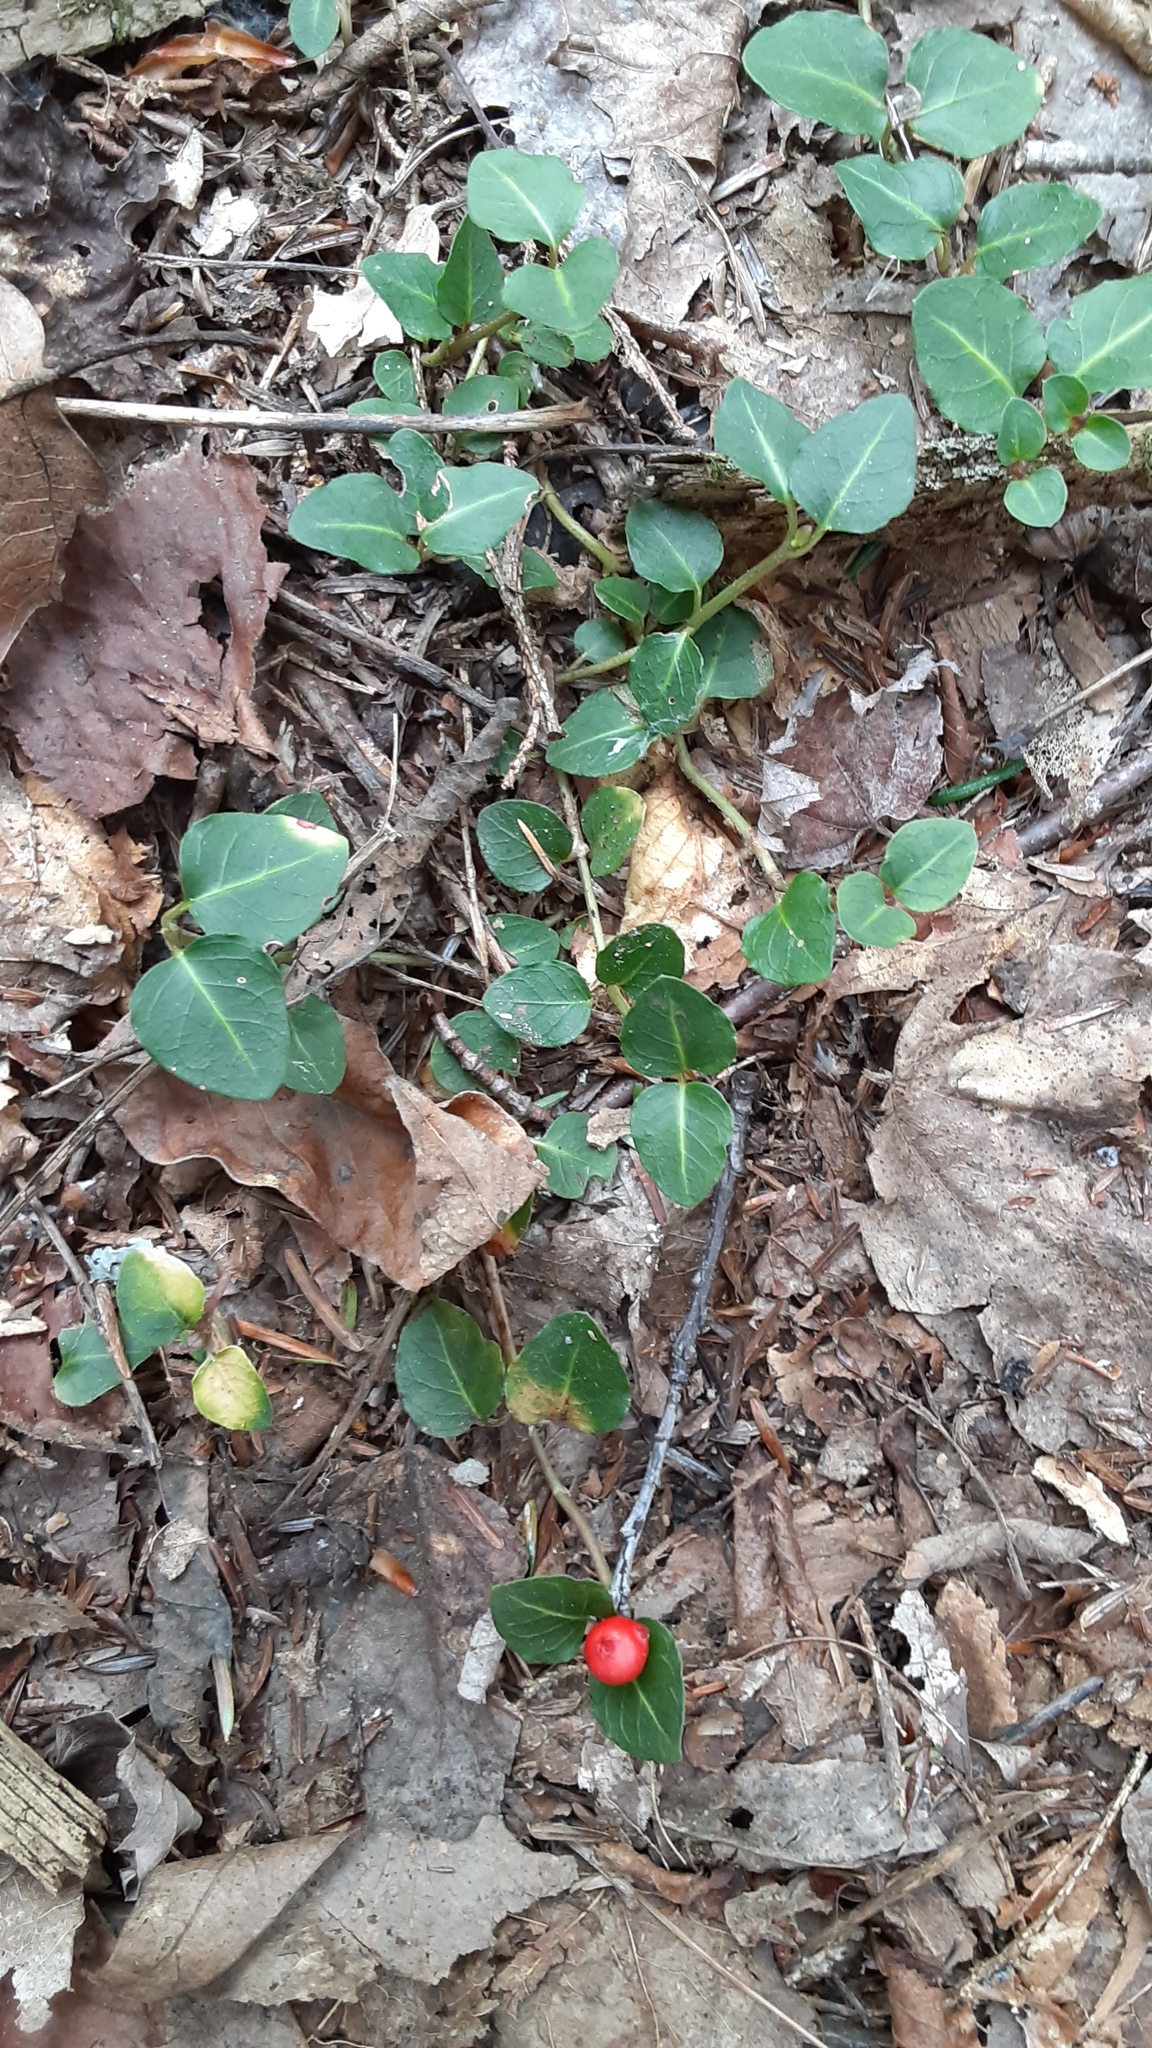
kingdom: Plantae
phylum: Tracheophyta
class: Magnoliopsida
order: Gentianales
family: Rubiaceae
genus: Mitchella
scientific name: Mitchella repens
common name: Partridge-berry
